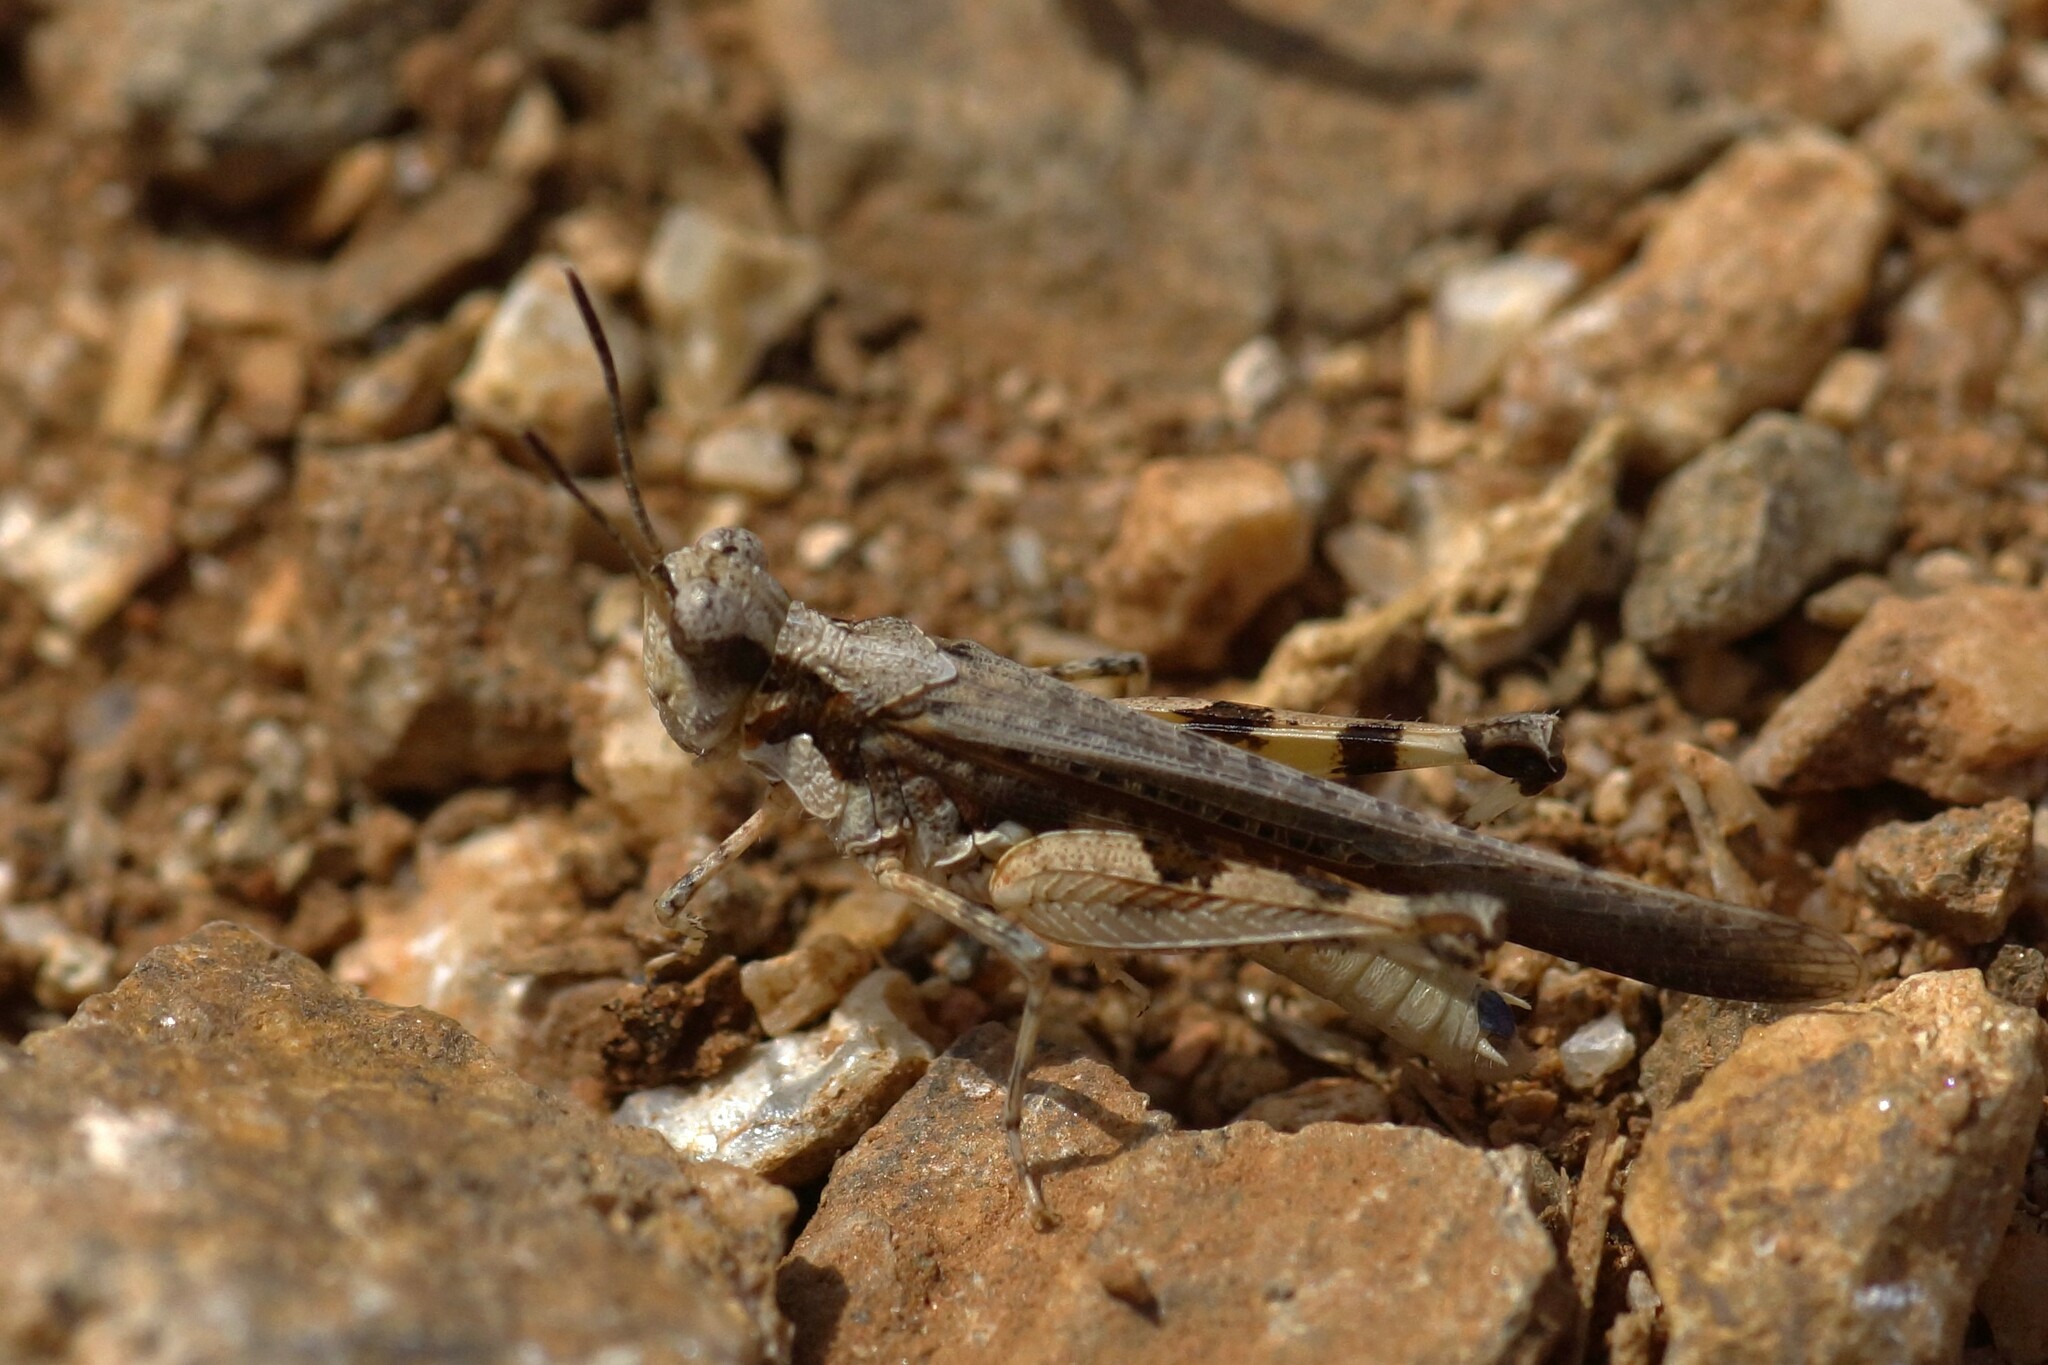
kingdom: Animalia
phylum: Arthropoda
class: Insecta
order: Orthoptera
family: Acrididae
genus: Pycnostictus
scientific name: Pycnostictus seriatus
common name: Common bandwing
